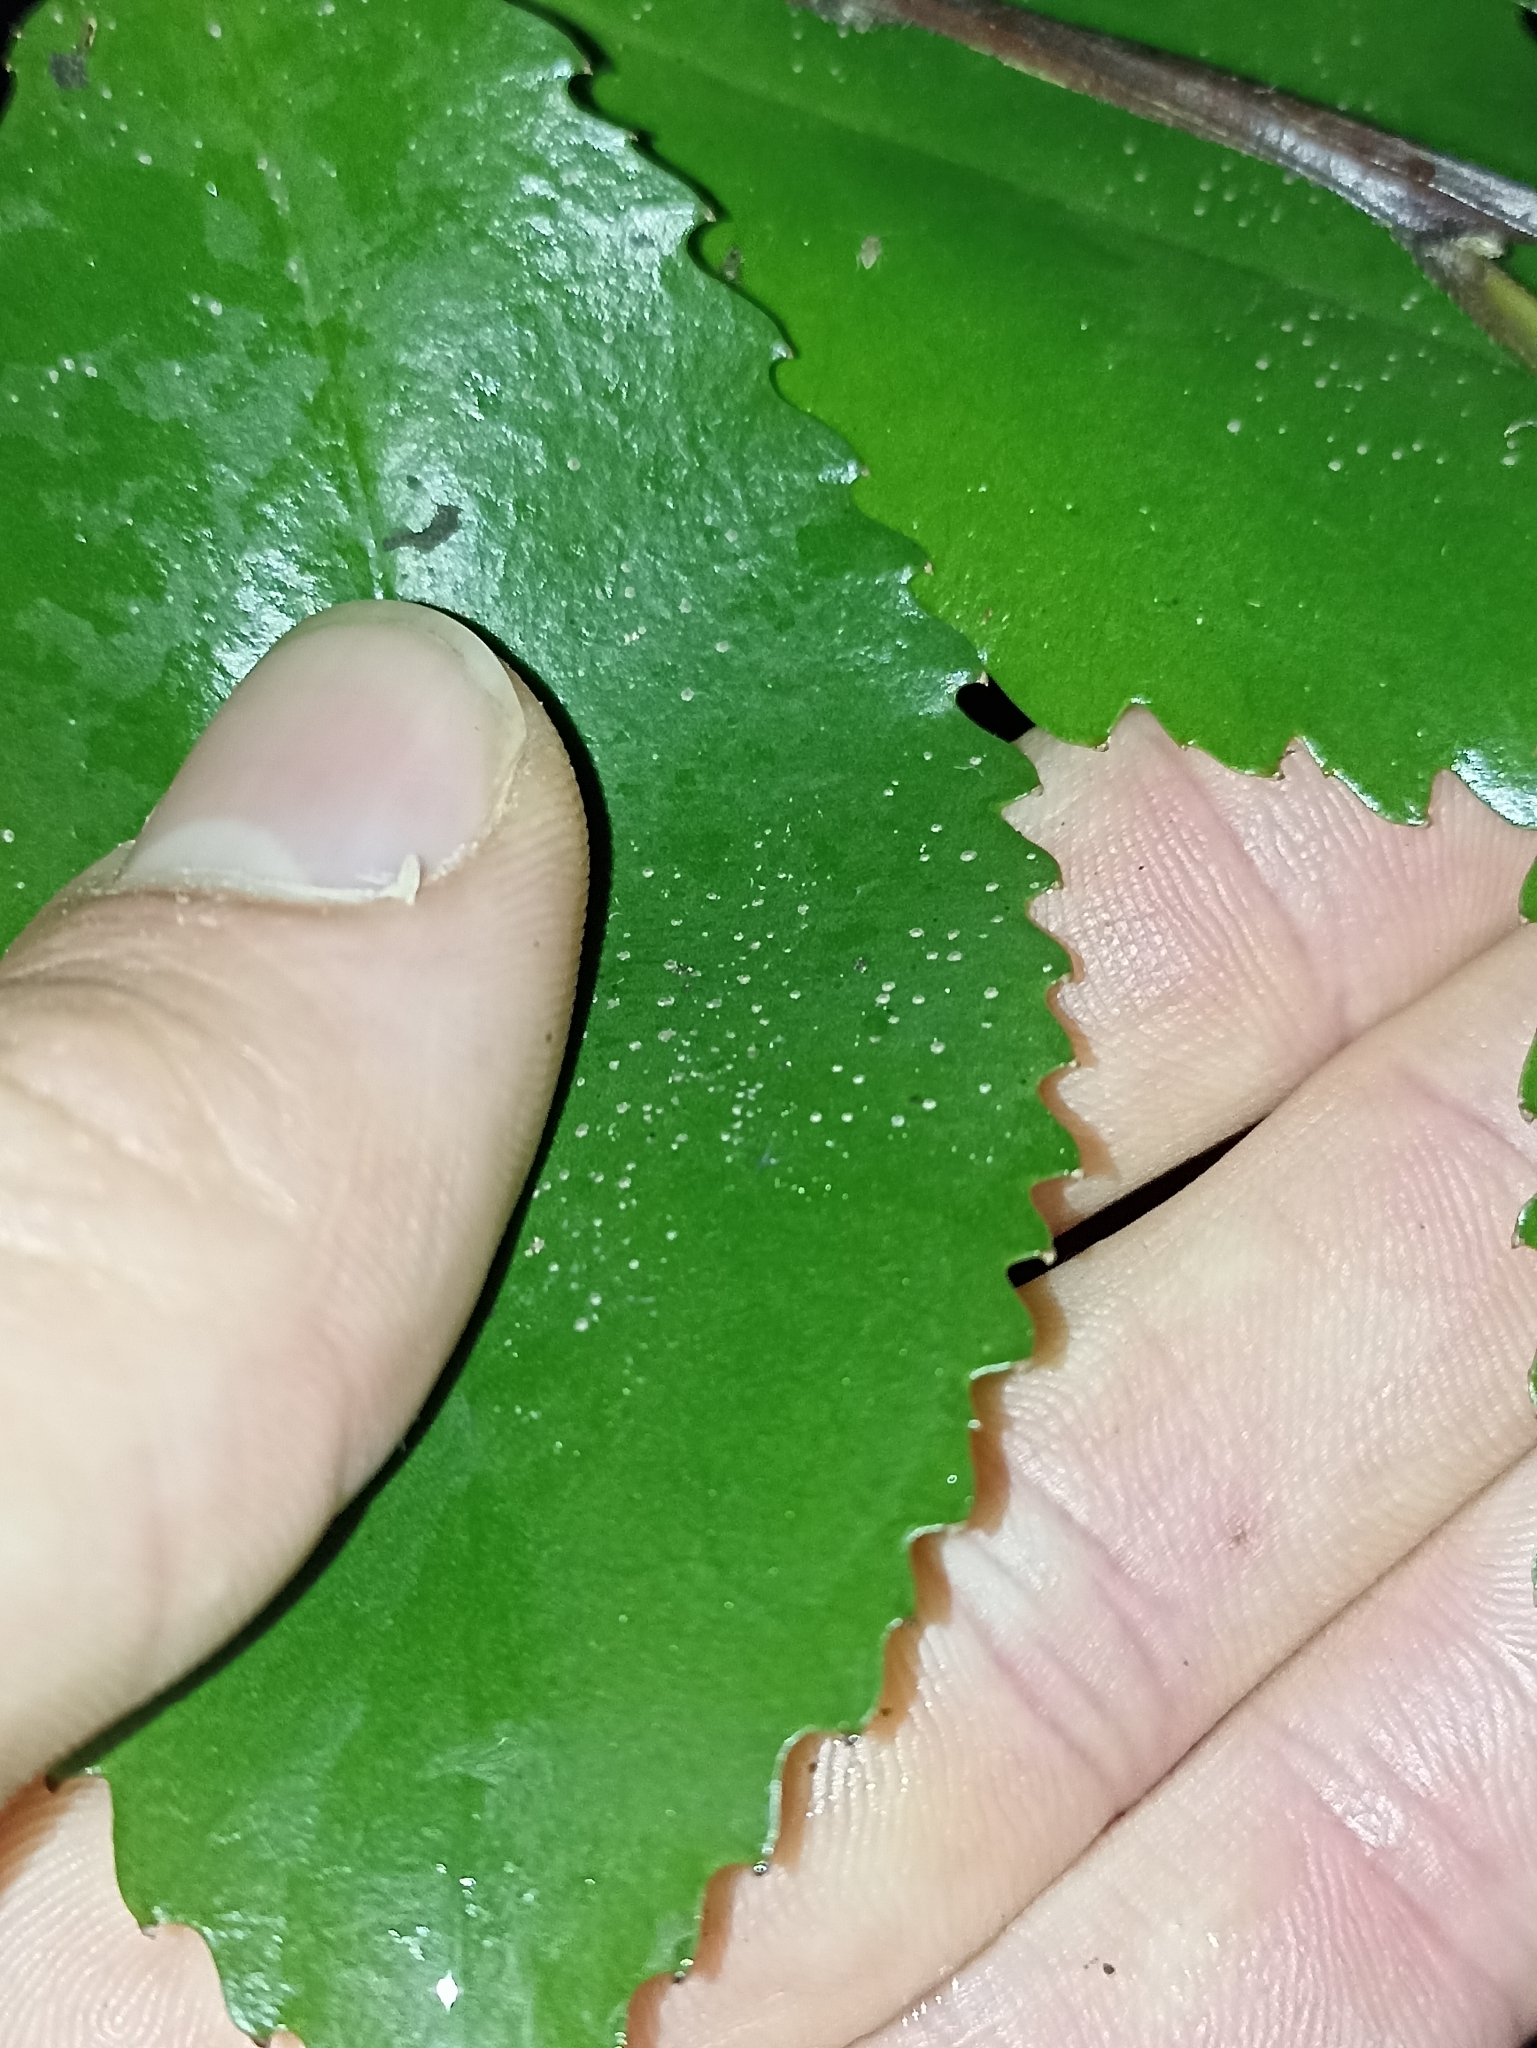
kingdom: Plantae
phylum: Tracheophyta
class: Magnoliopsida
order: Laurales
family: Atherospermataceae
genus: Laurelia
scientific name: Laurelia novae-zelandiae
